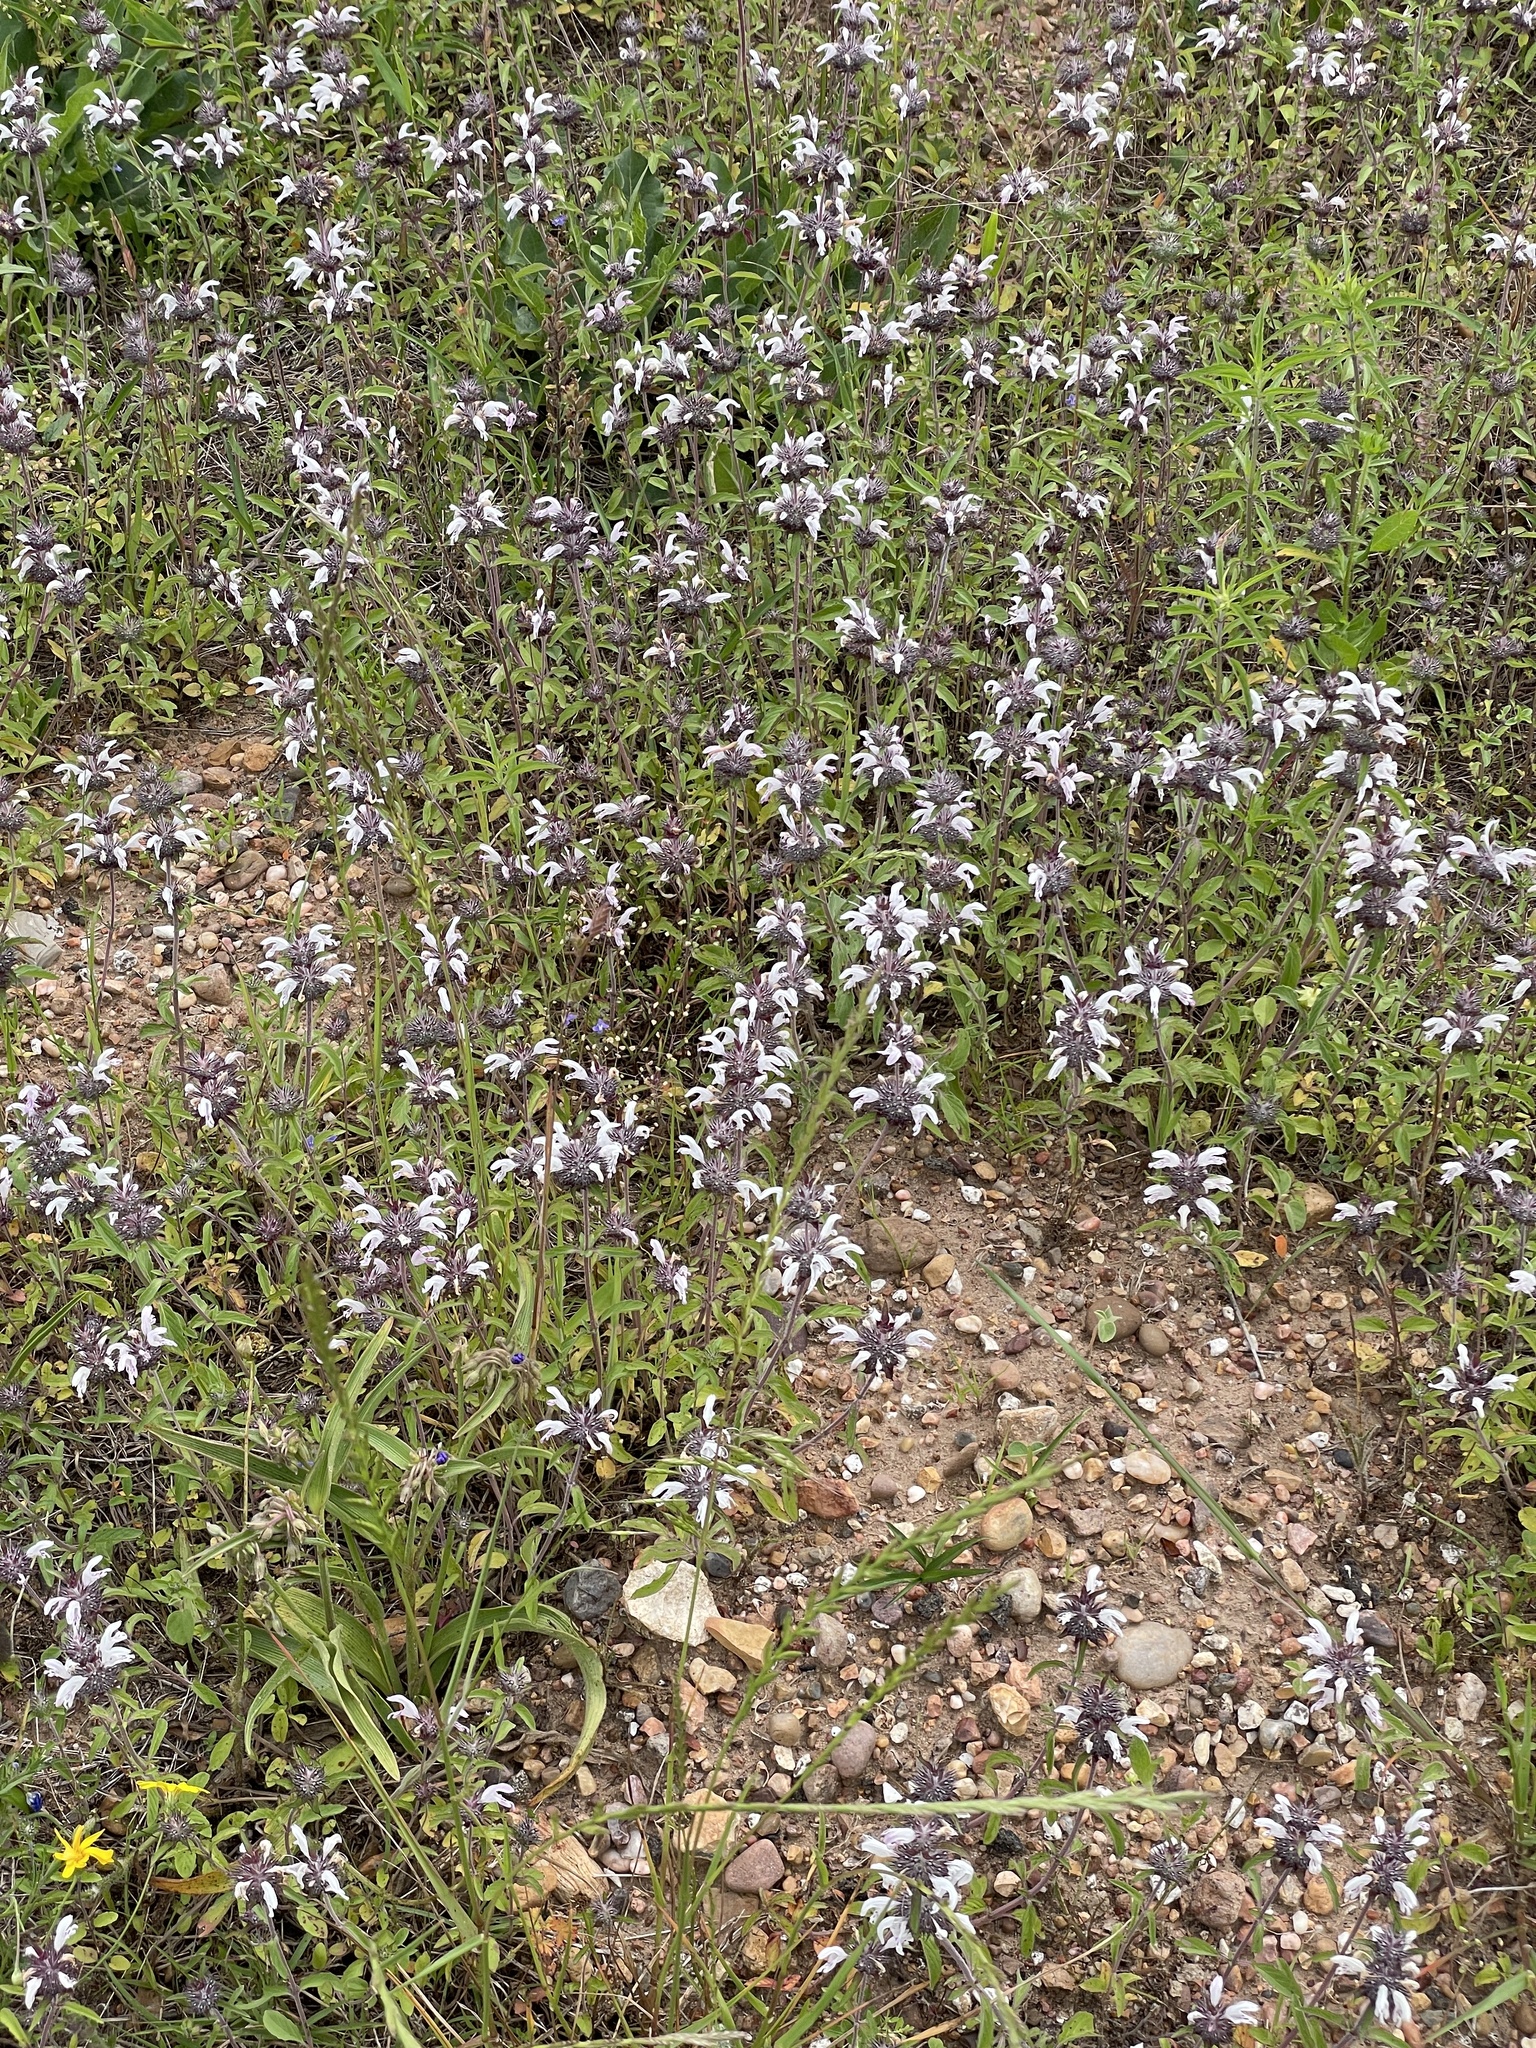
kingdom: Plantae
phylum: Tracheophyta
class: Magnoliopsida
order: Lamiales
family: Lamiaceae
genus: Monarda
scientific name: Monarda clinopodioides
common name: Basil beebalm
